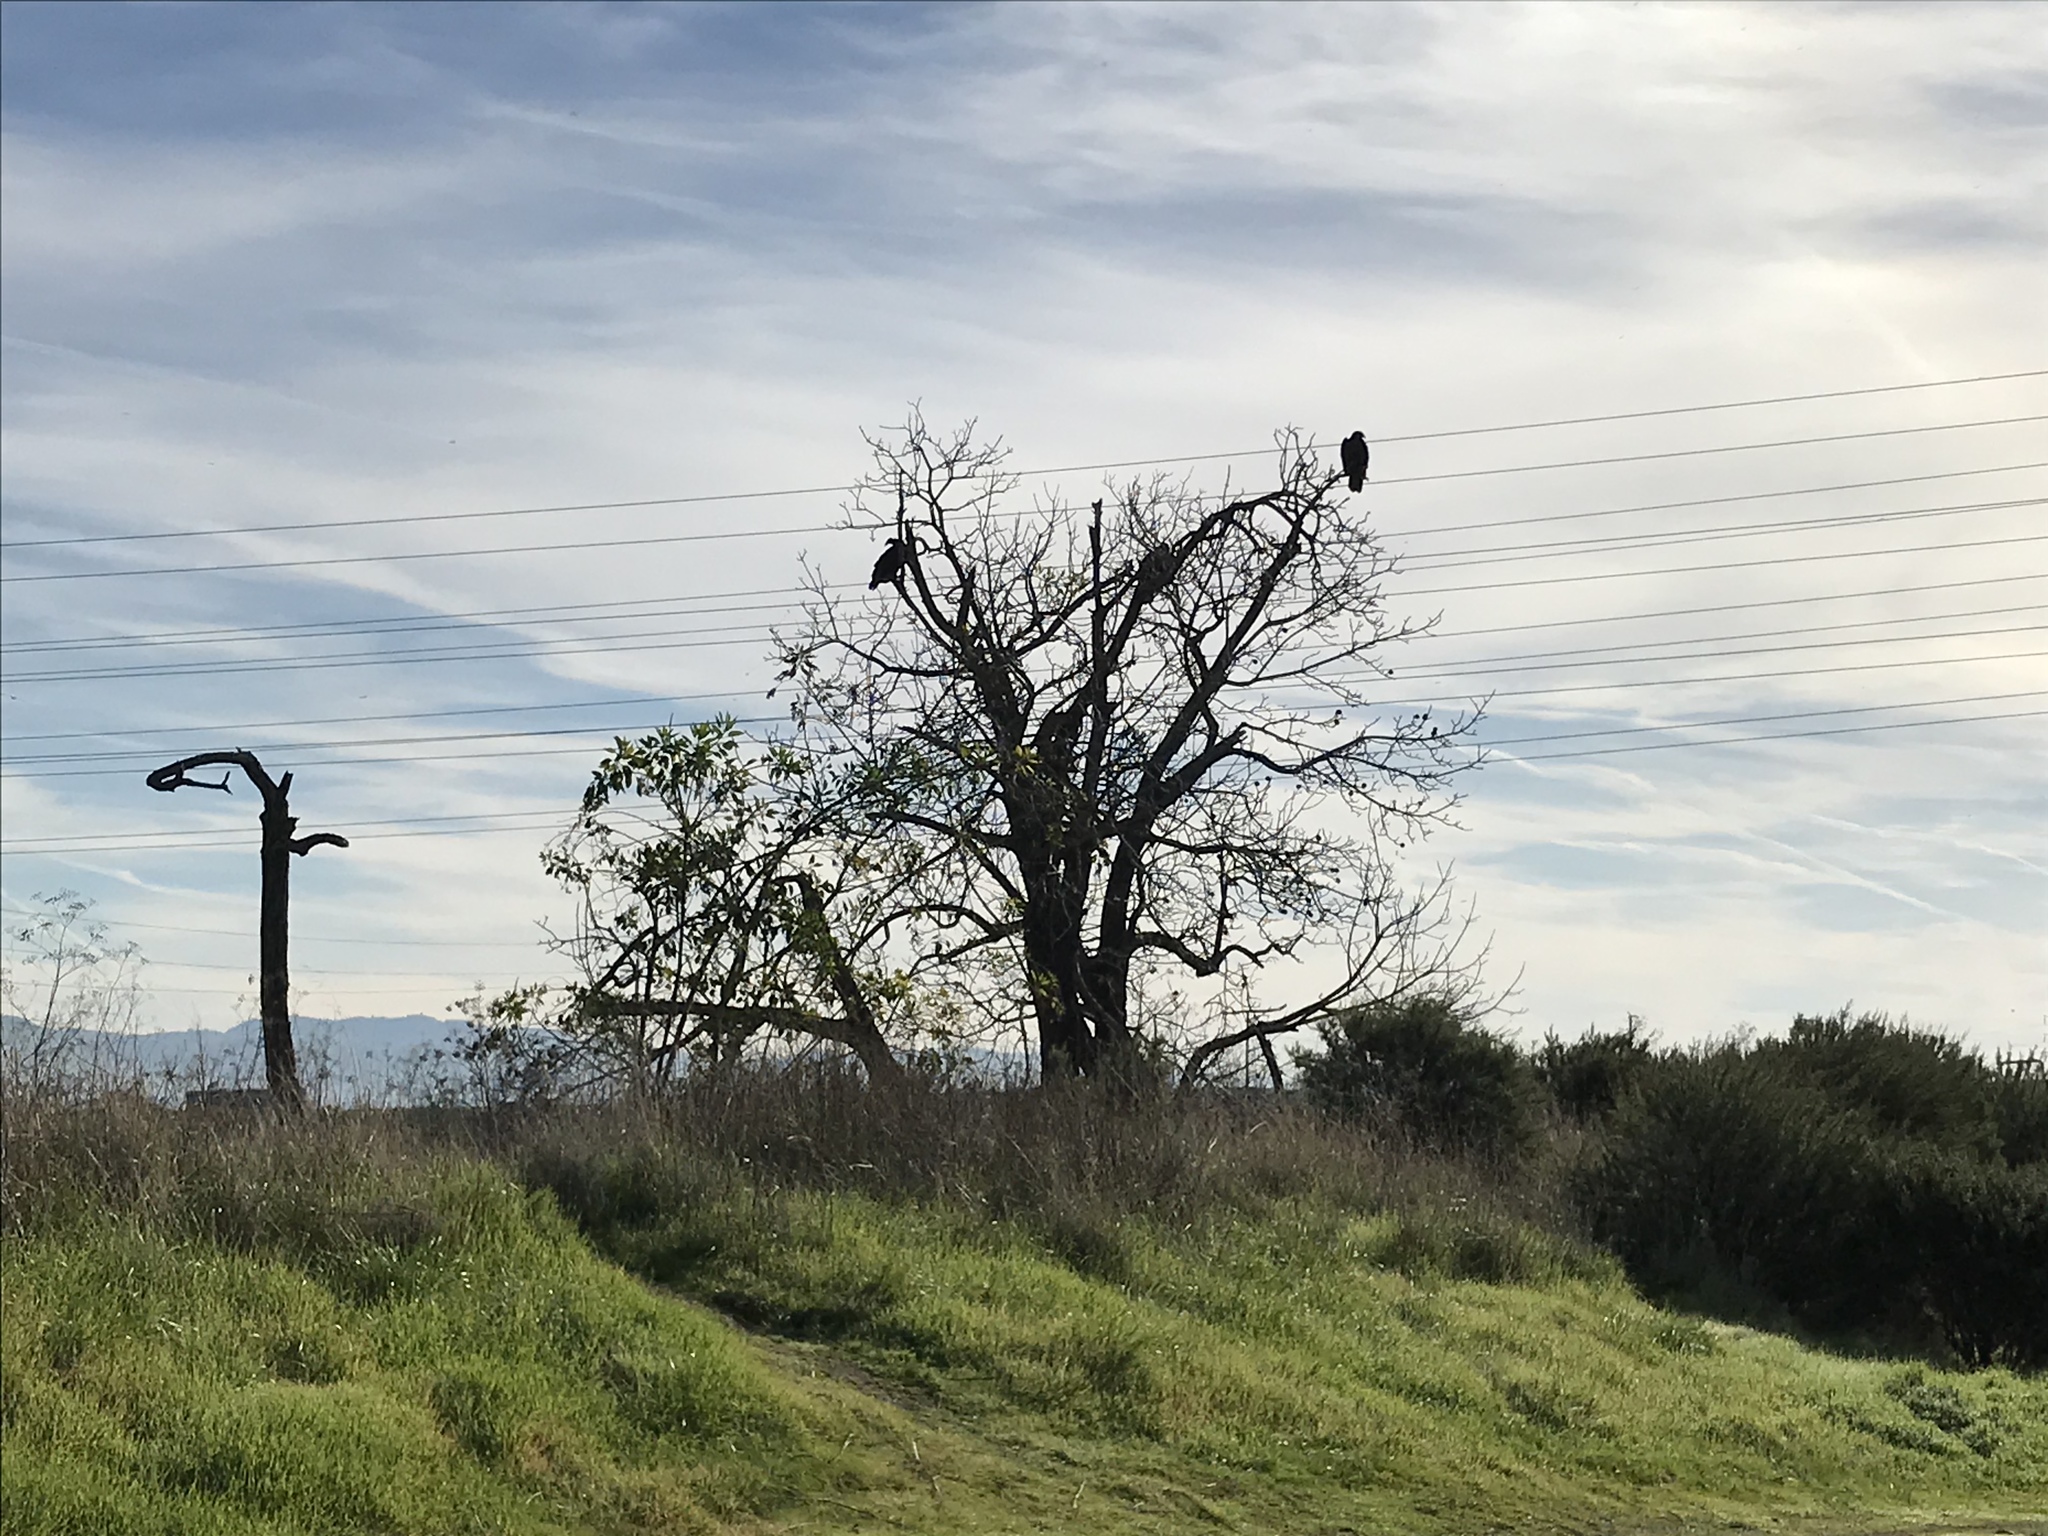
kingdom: Animalia
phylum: Chordata
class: Aves
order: Accipitriformes
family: Cathartidae
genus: Cathartes
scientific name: Cathartes aura
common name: Turkey vulture
